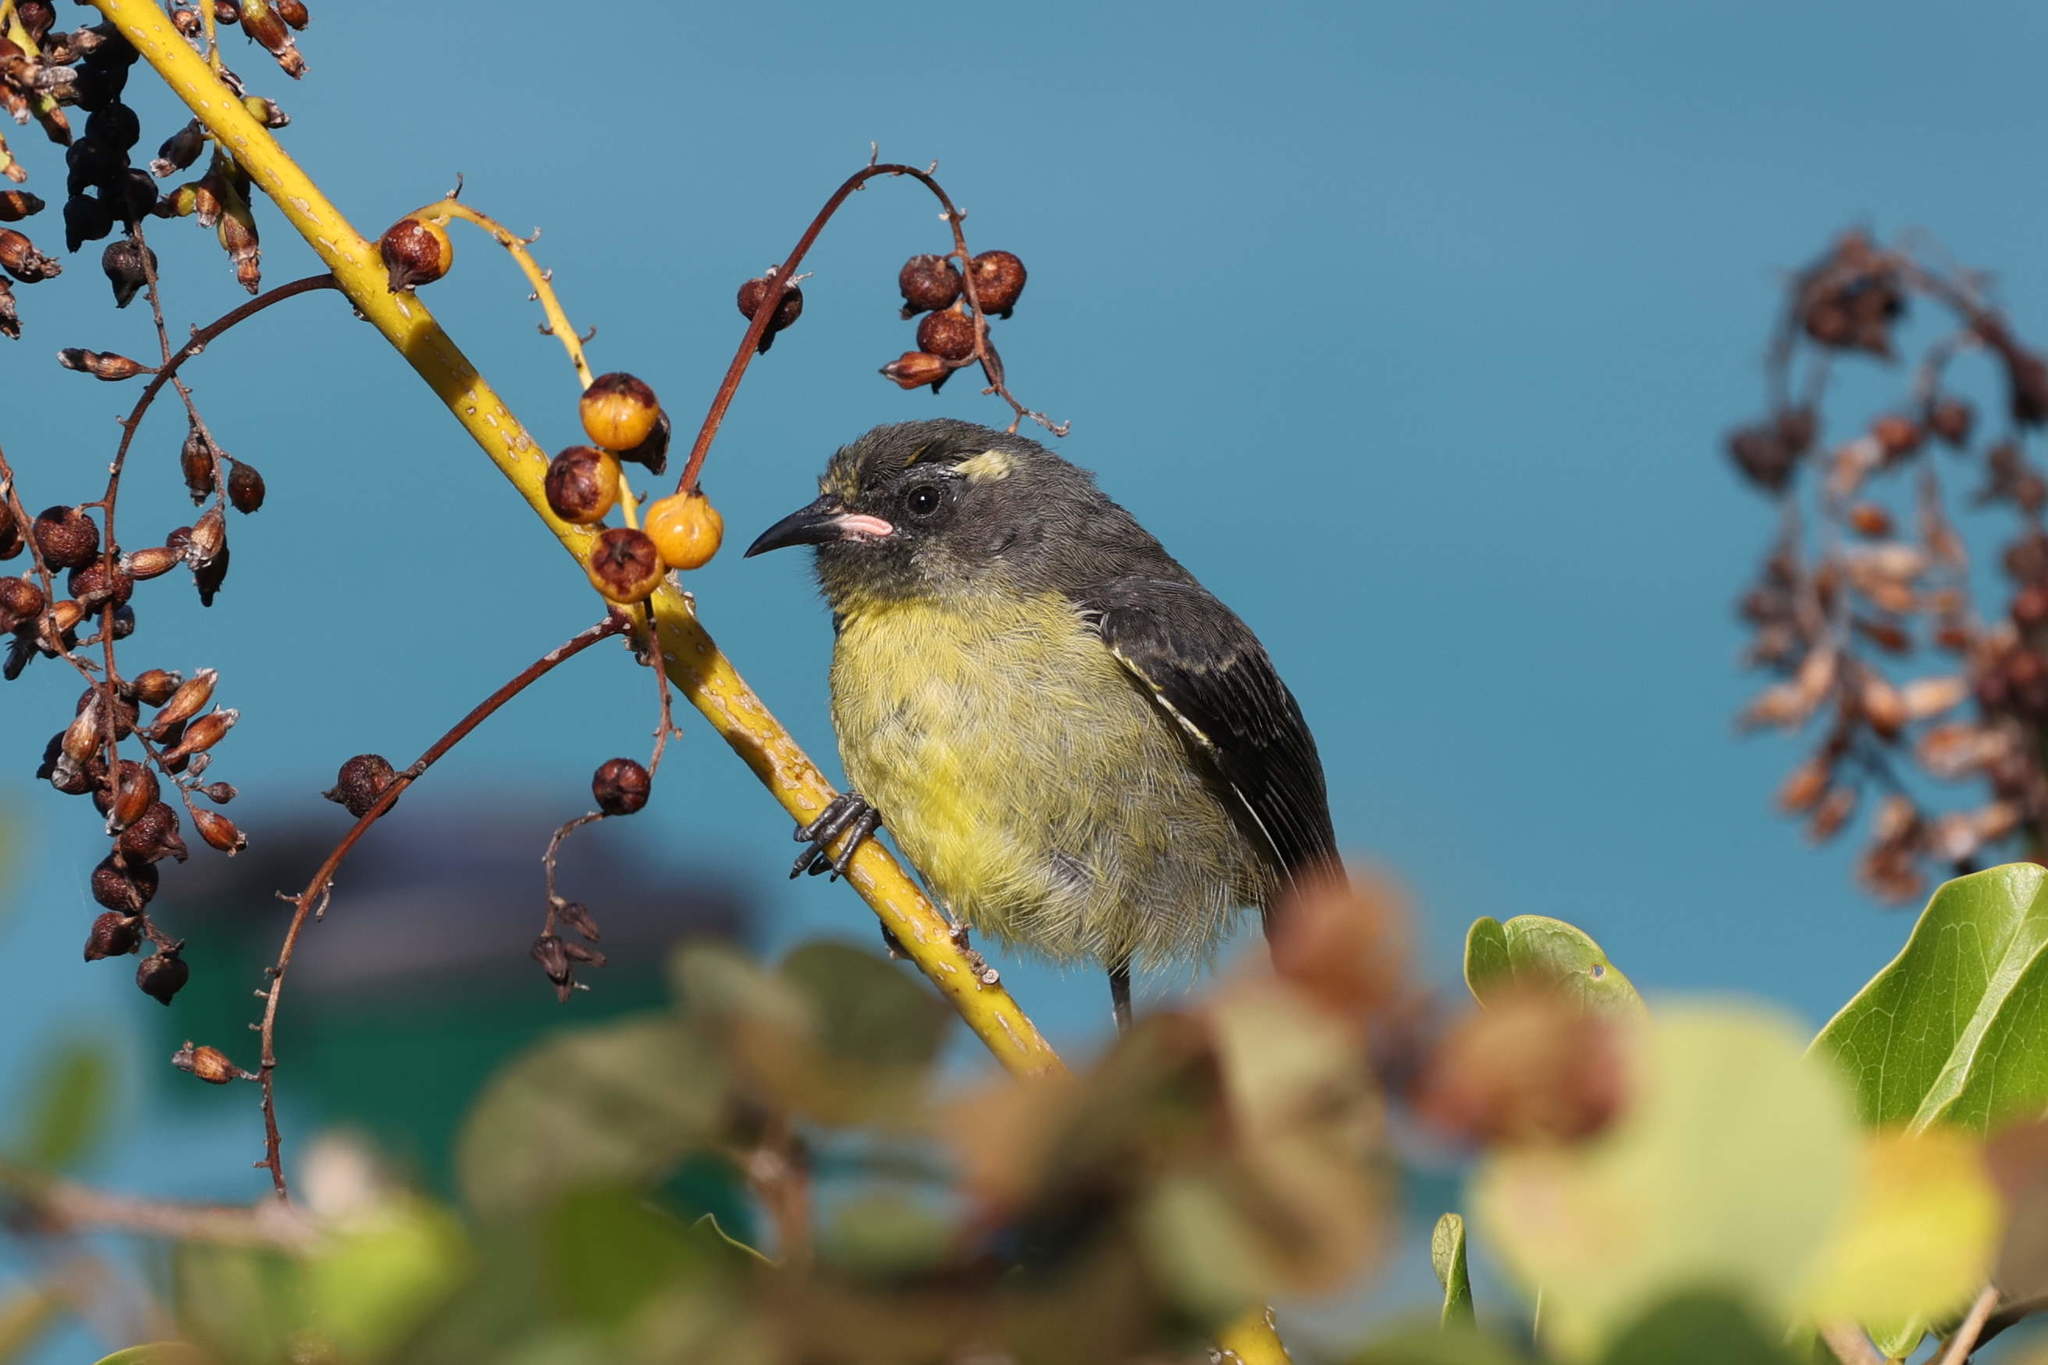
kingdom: Animalia
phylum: Chordata
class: Aves
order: Passeriformes
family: Thraupidae
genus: Coereba
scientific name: Coereba flaveola
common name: Bananaquit
